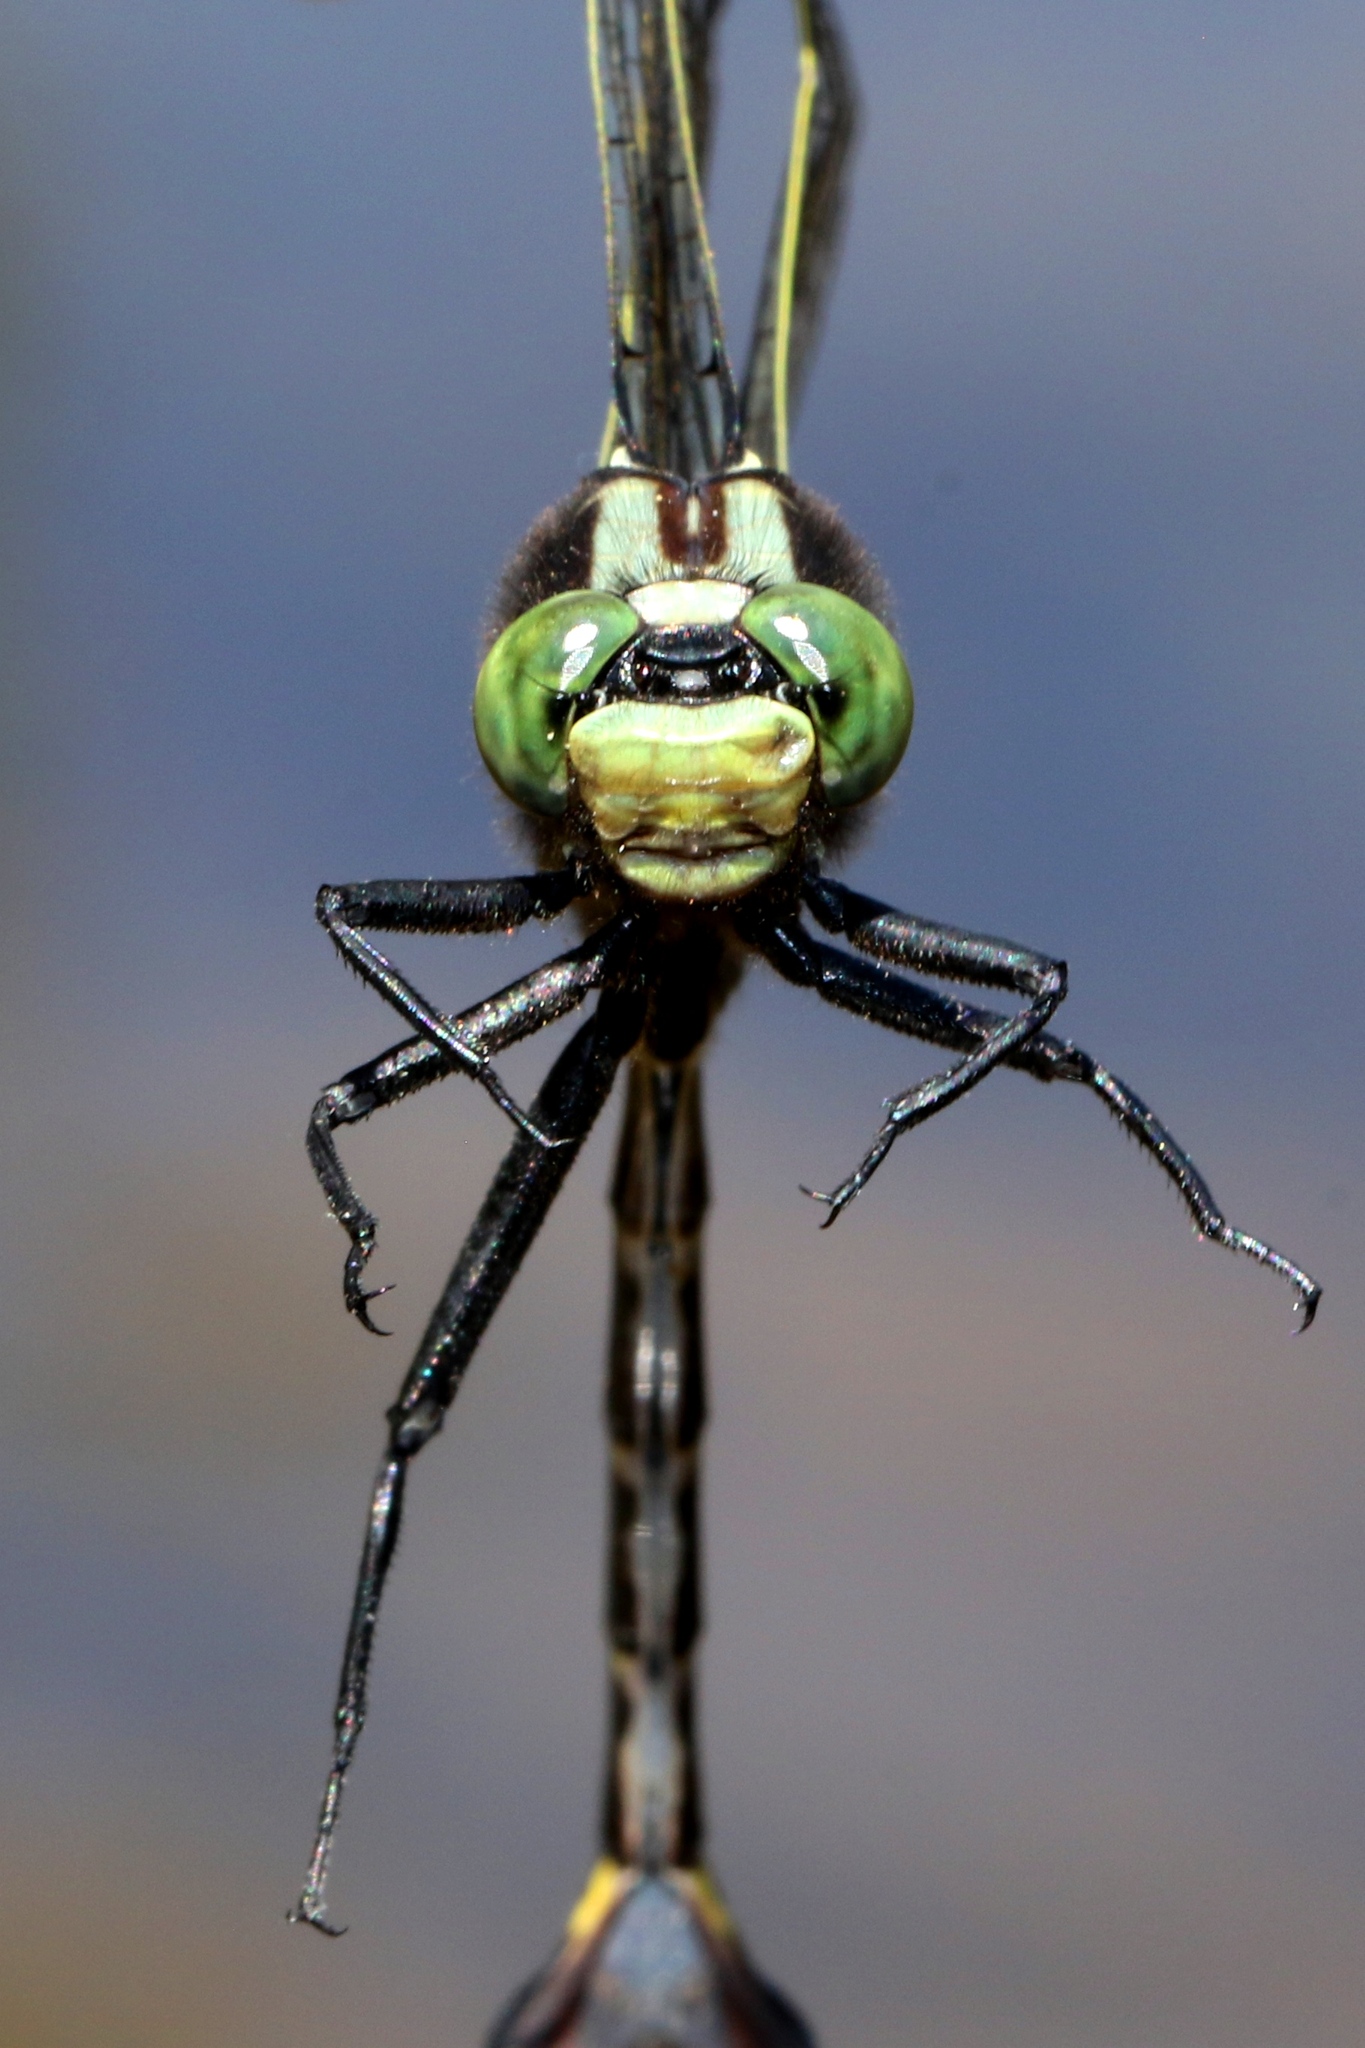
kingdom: Animalia
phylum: Arthropoda
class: Insecta
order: Odonata
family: Gomphidae
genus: Gomphurus
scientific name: Gomphurus ventricosus
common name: Skillet clubtail
